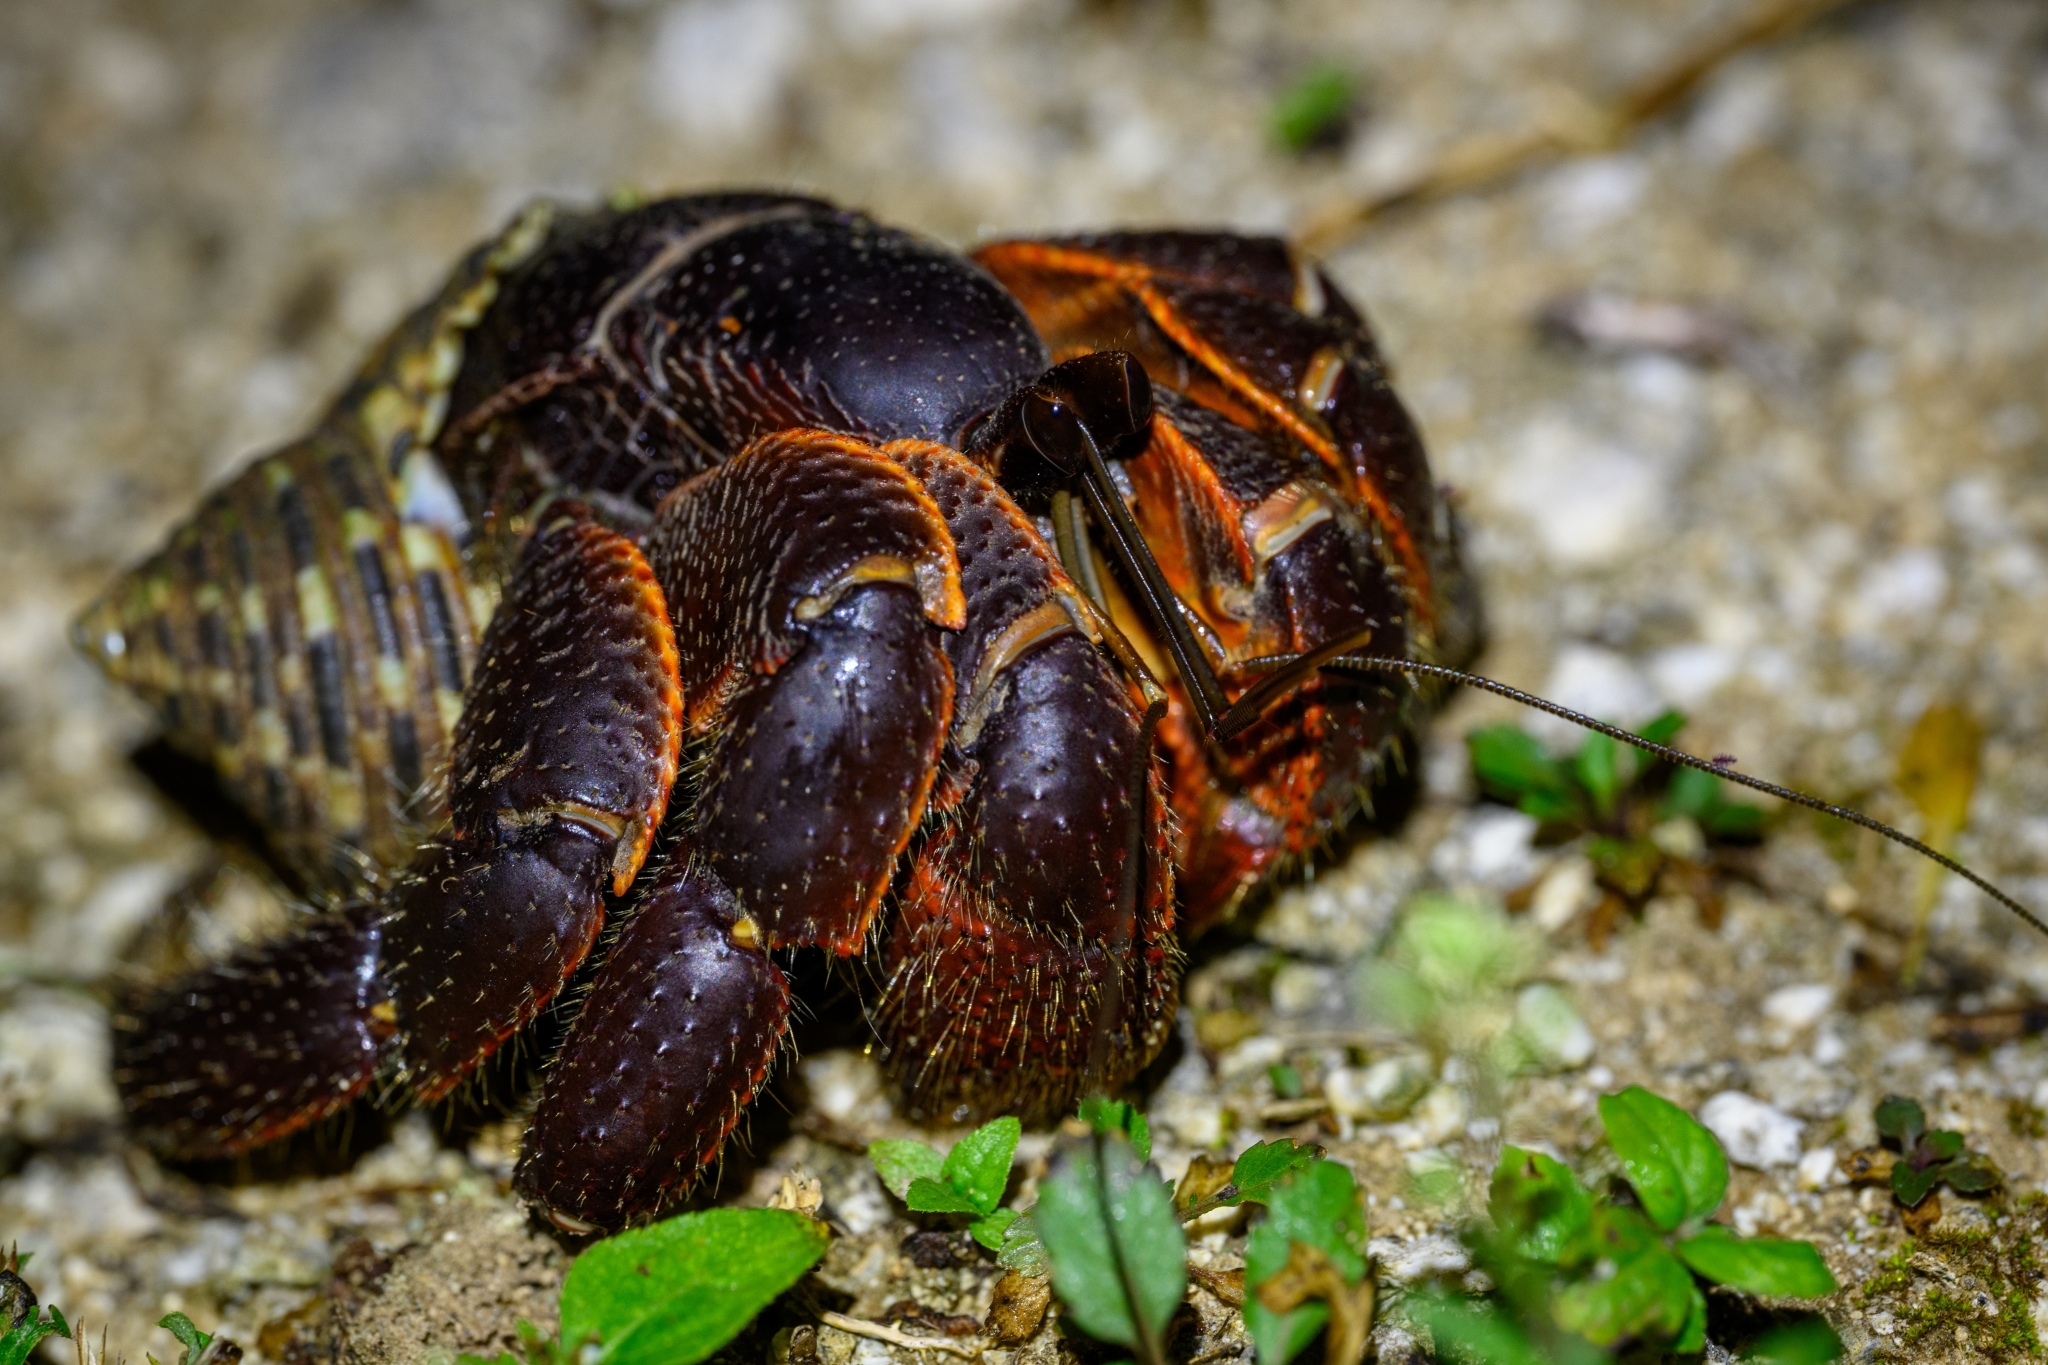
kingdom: Animalia
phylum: Arthropoda
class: Malacostraca
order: Decapoda
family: Coenobitidae
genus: Coenobita
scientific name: Coenobita spinosus
